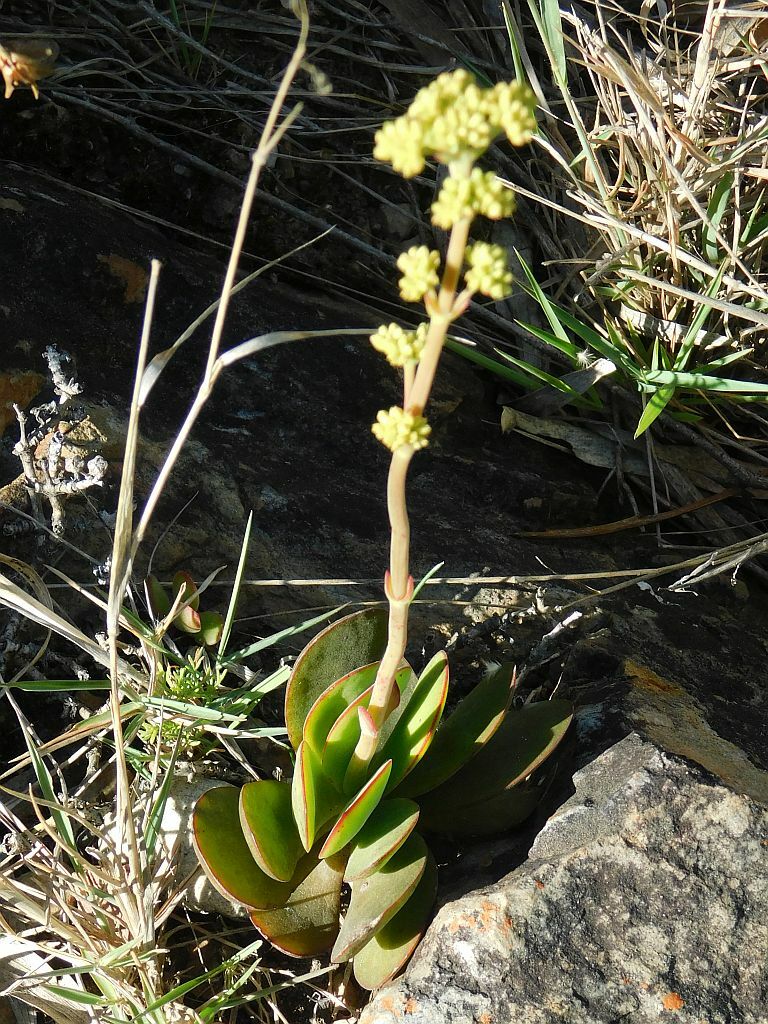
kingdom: Plantae
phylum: Tracheophyta
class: Magnoliopsida
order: Saxifragales
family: Crassulaceae
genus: Crassula
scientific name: Crassula atropurpurea
